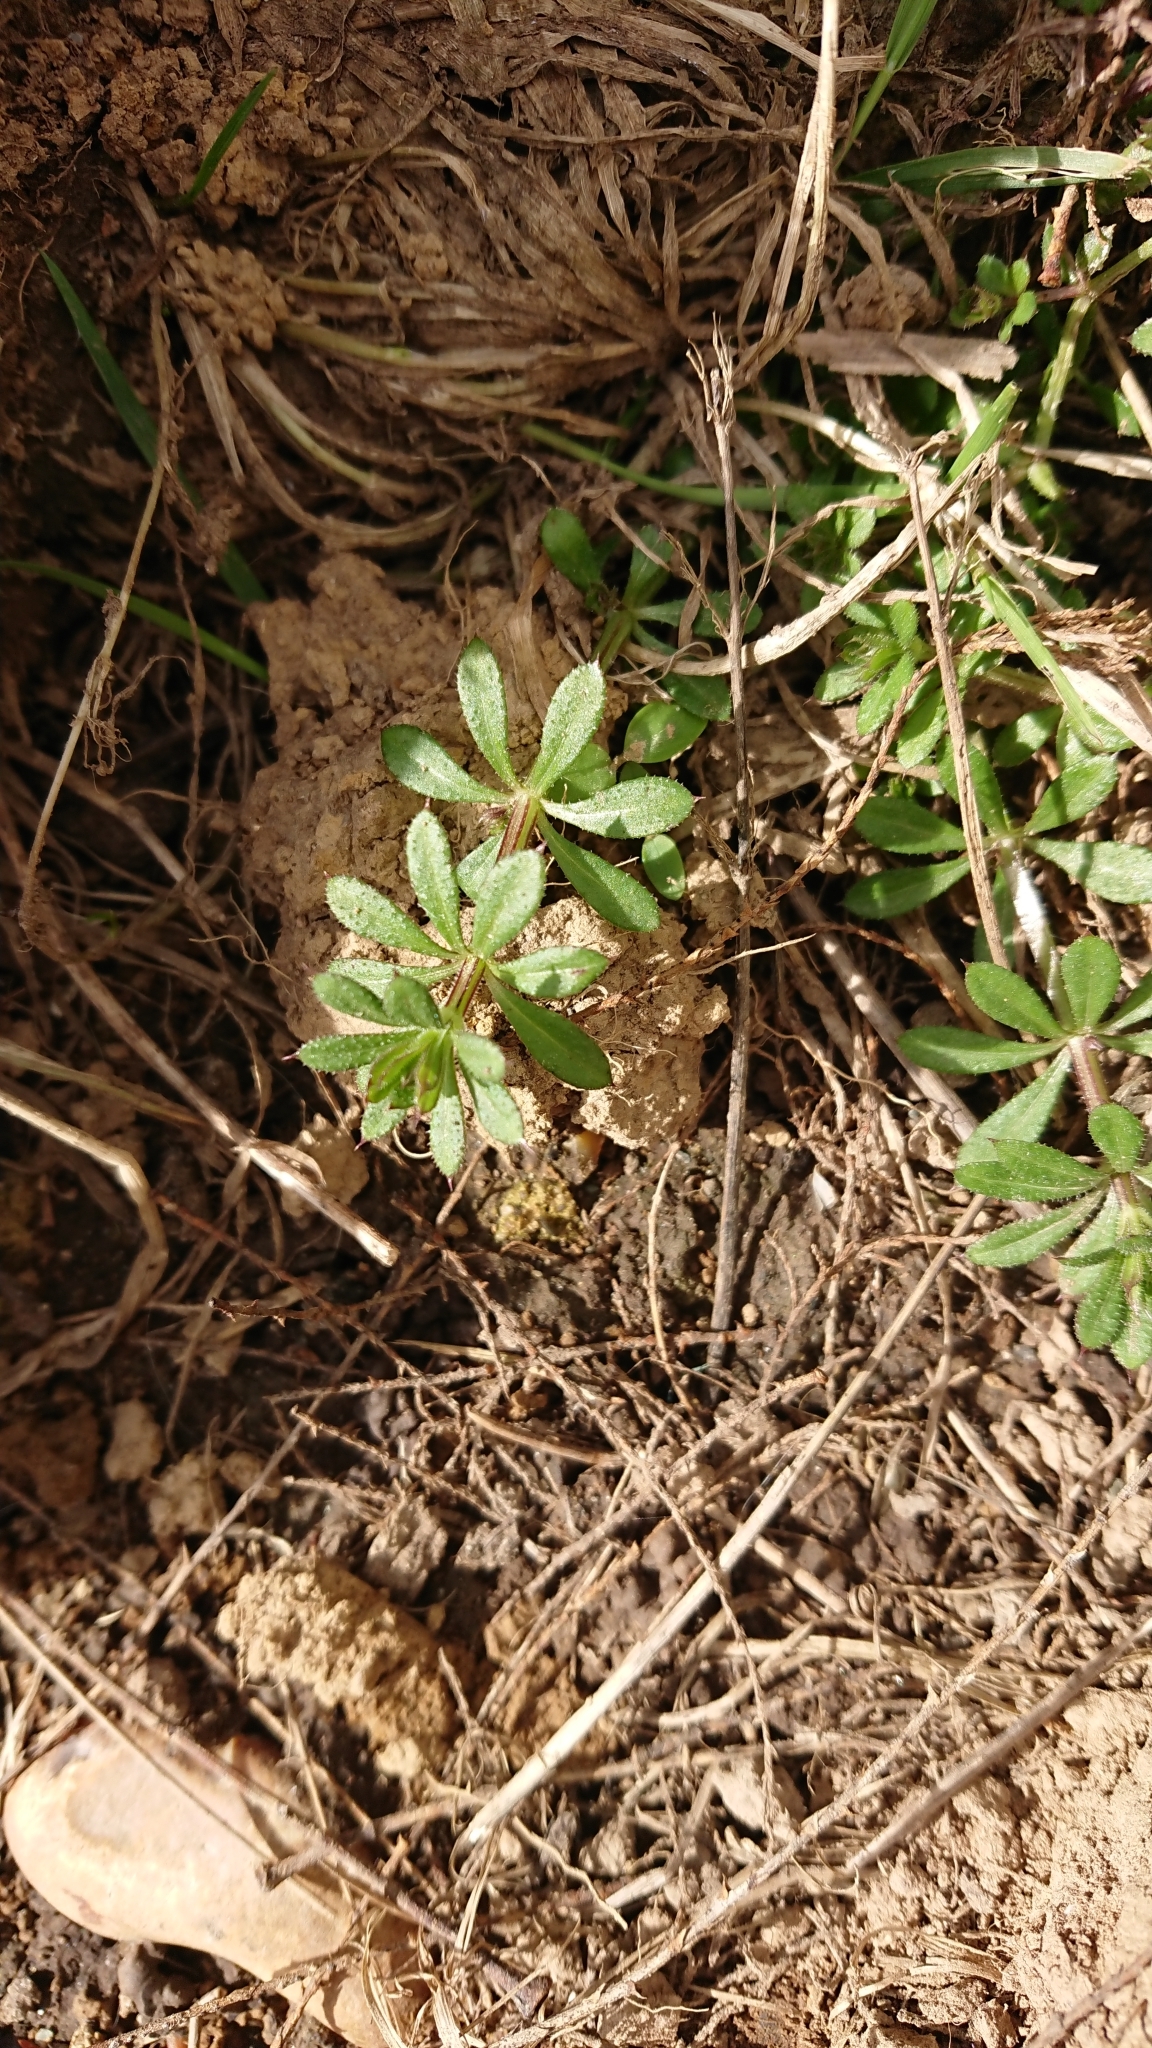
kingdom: Plantae
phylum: Tracheophyta
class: Magnoliopsida
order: Gentianales
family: Rubiaceae
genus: Galium
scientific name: Galium aparine
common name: Cleavers
